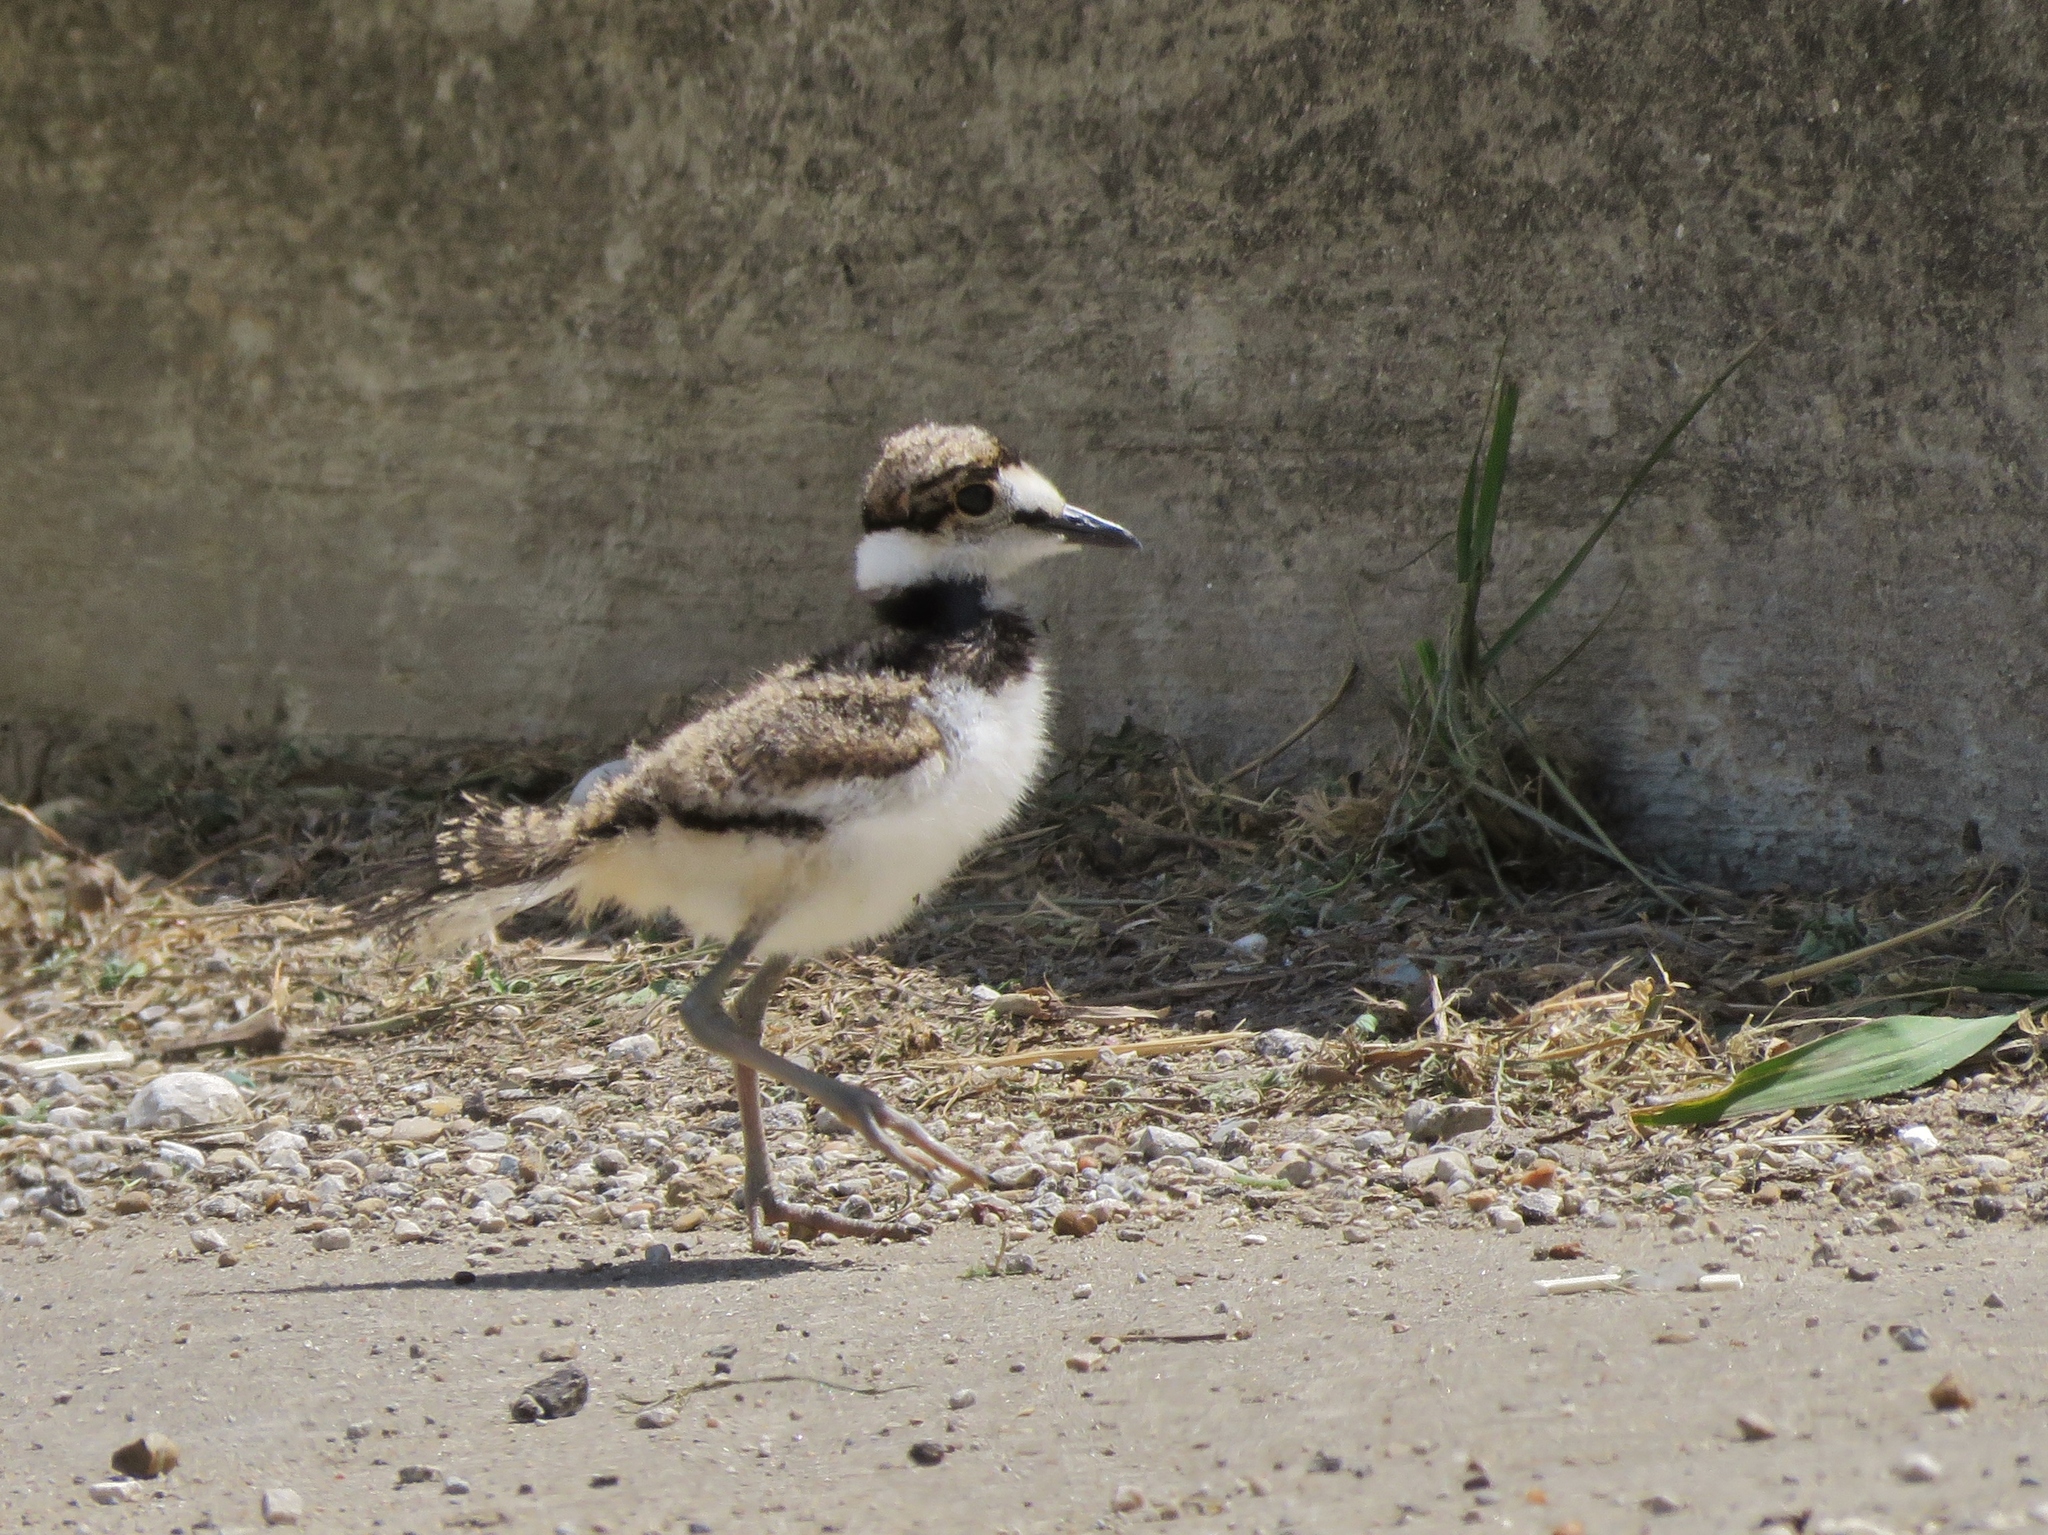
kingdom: Animalia
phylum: Chordata
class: Aves
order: Charadriiformes
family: Charadriidae
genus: Charadrius
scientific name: Charadrius vociferus
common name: Killdeer
